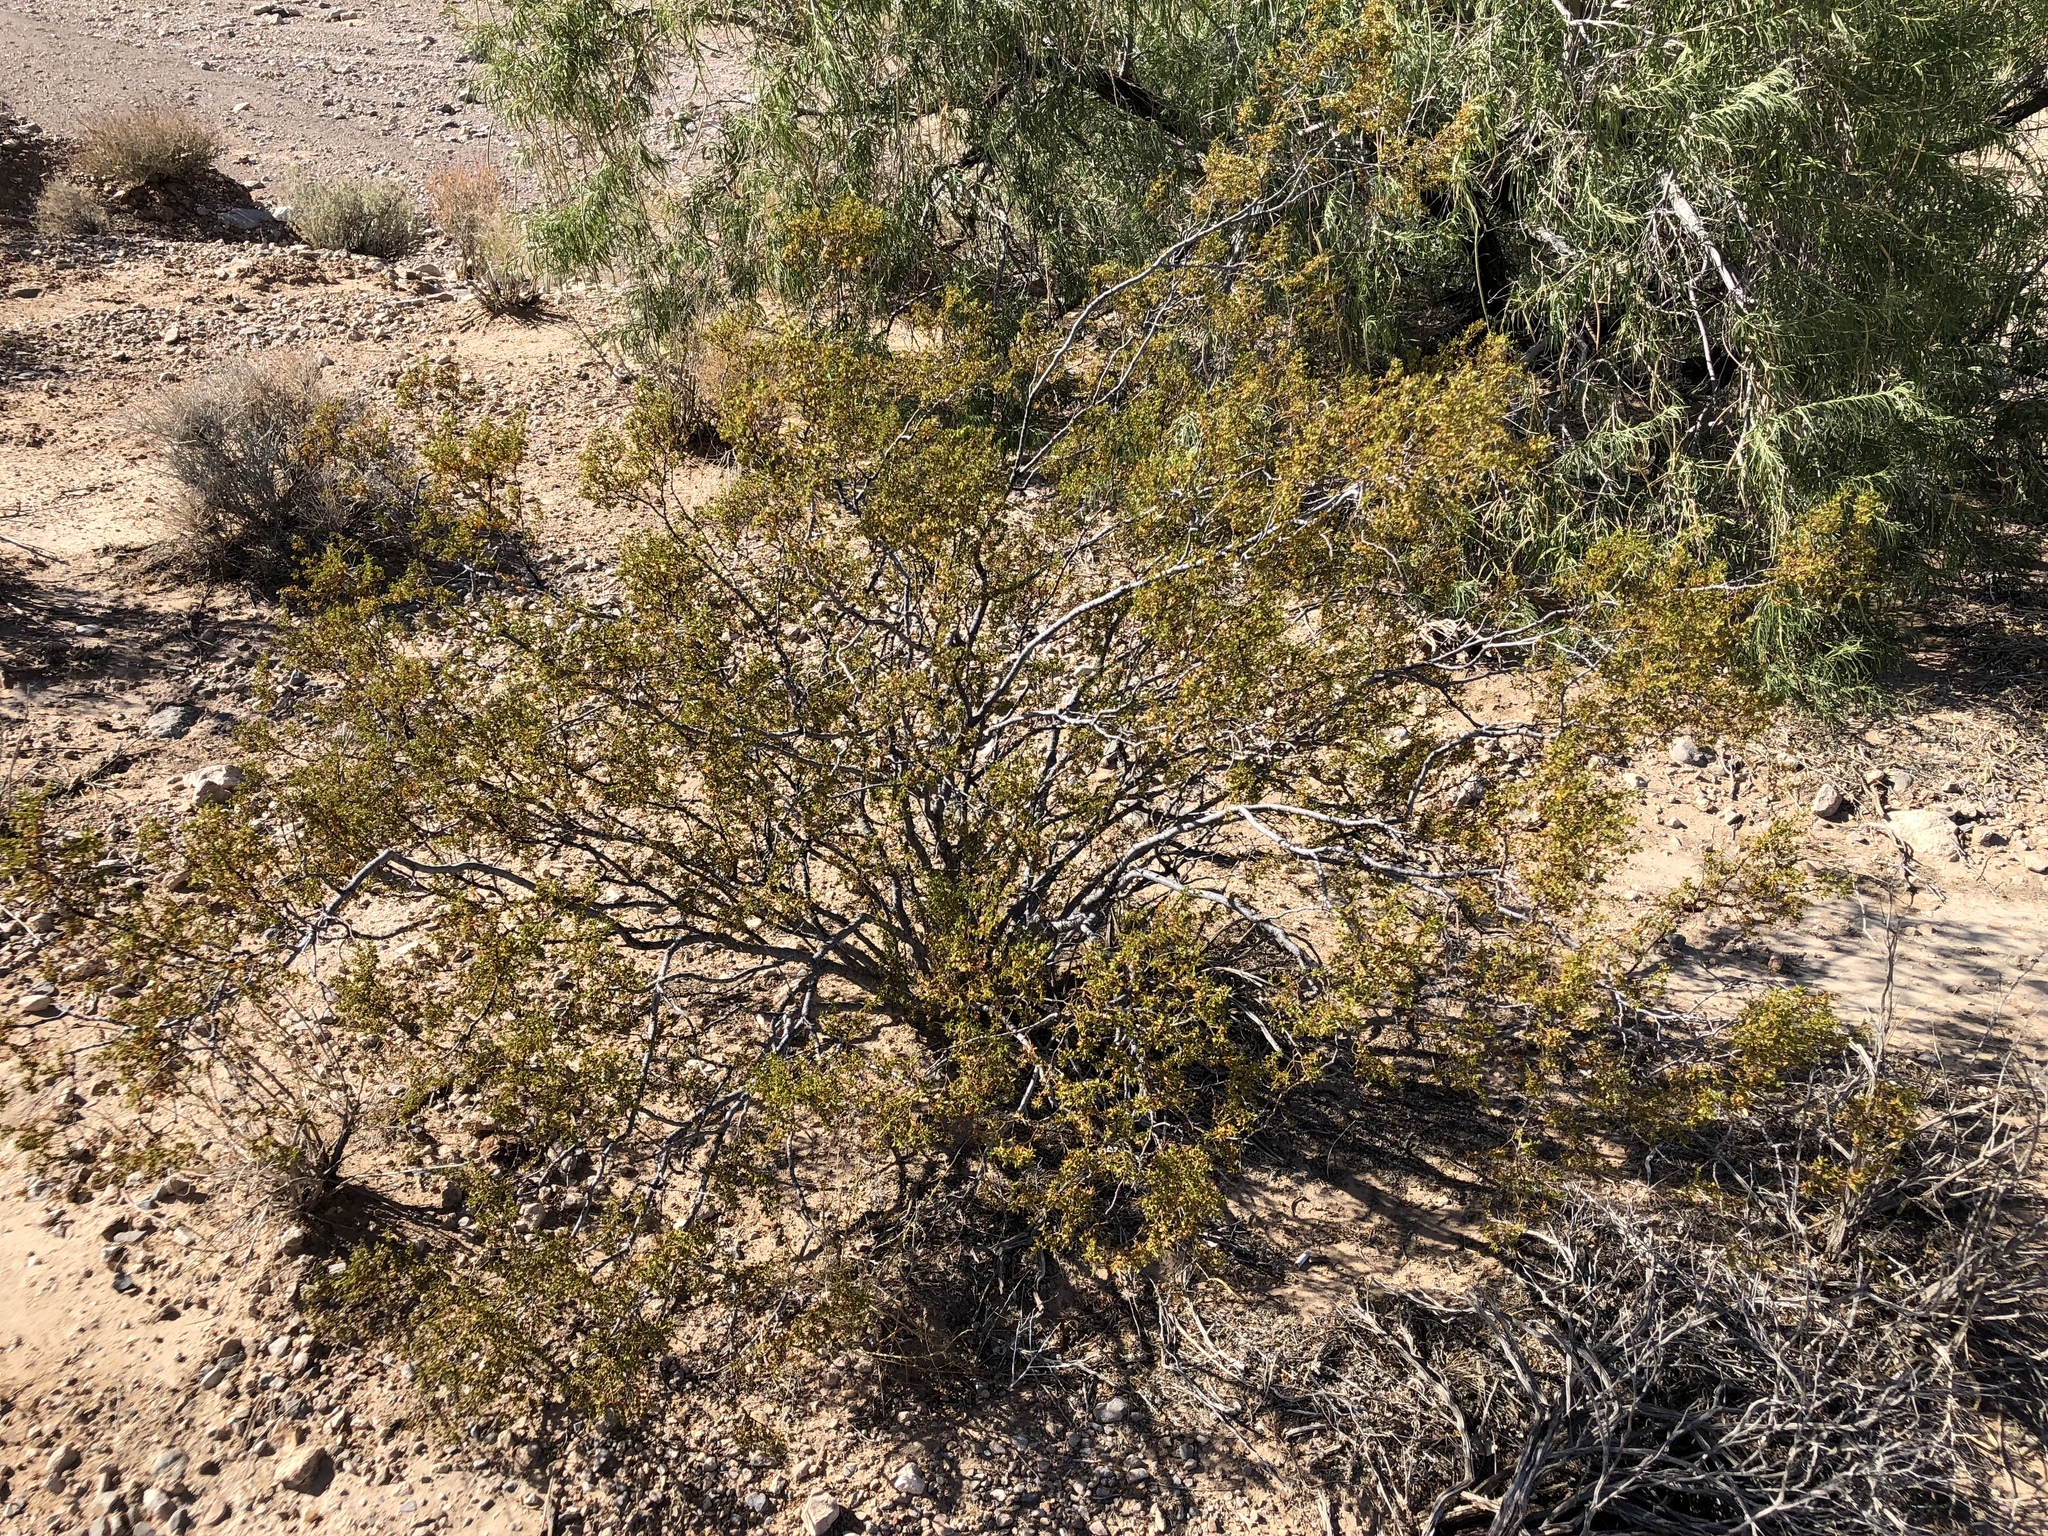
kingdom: Plantae
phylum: Tracheophyta
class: Magnoliopsida
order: Zygophyllales
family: Zygophyllaceae
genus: Larrea
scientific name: Larrea tridentata
